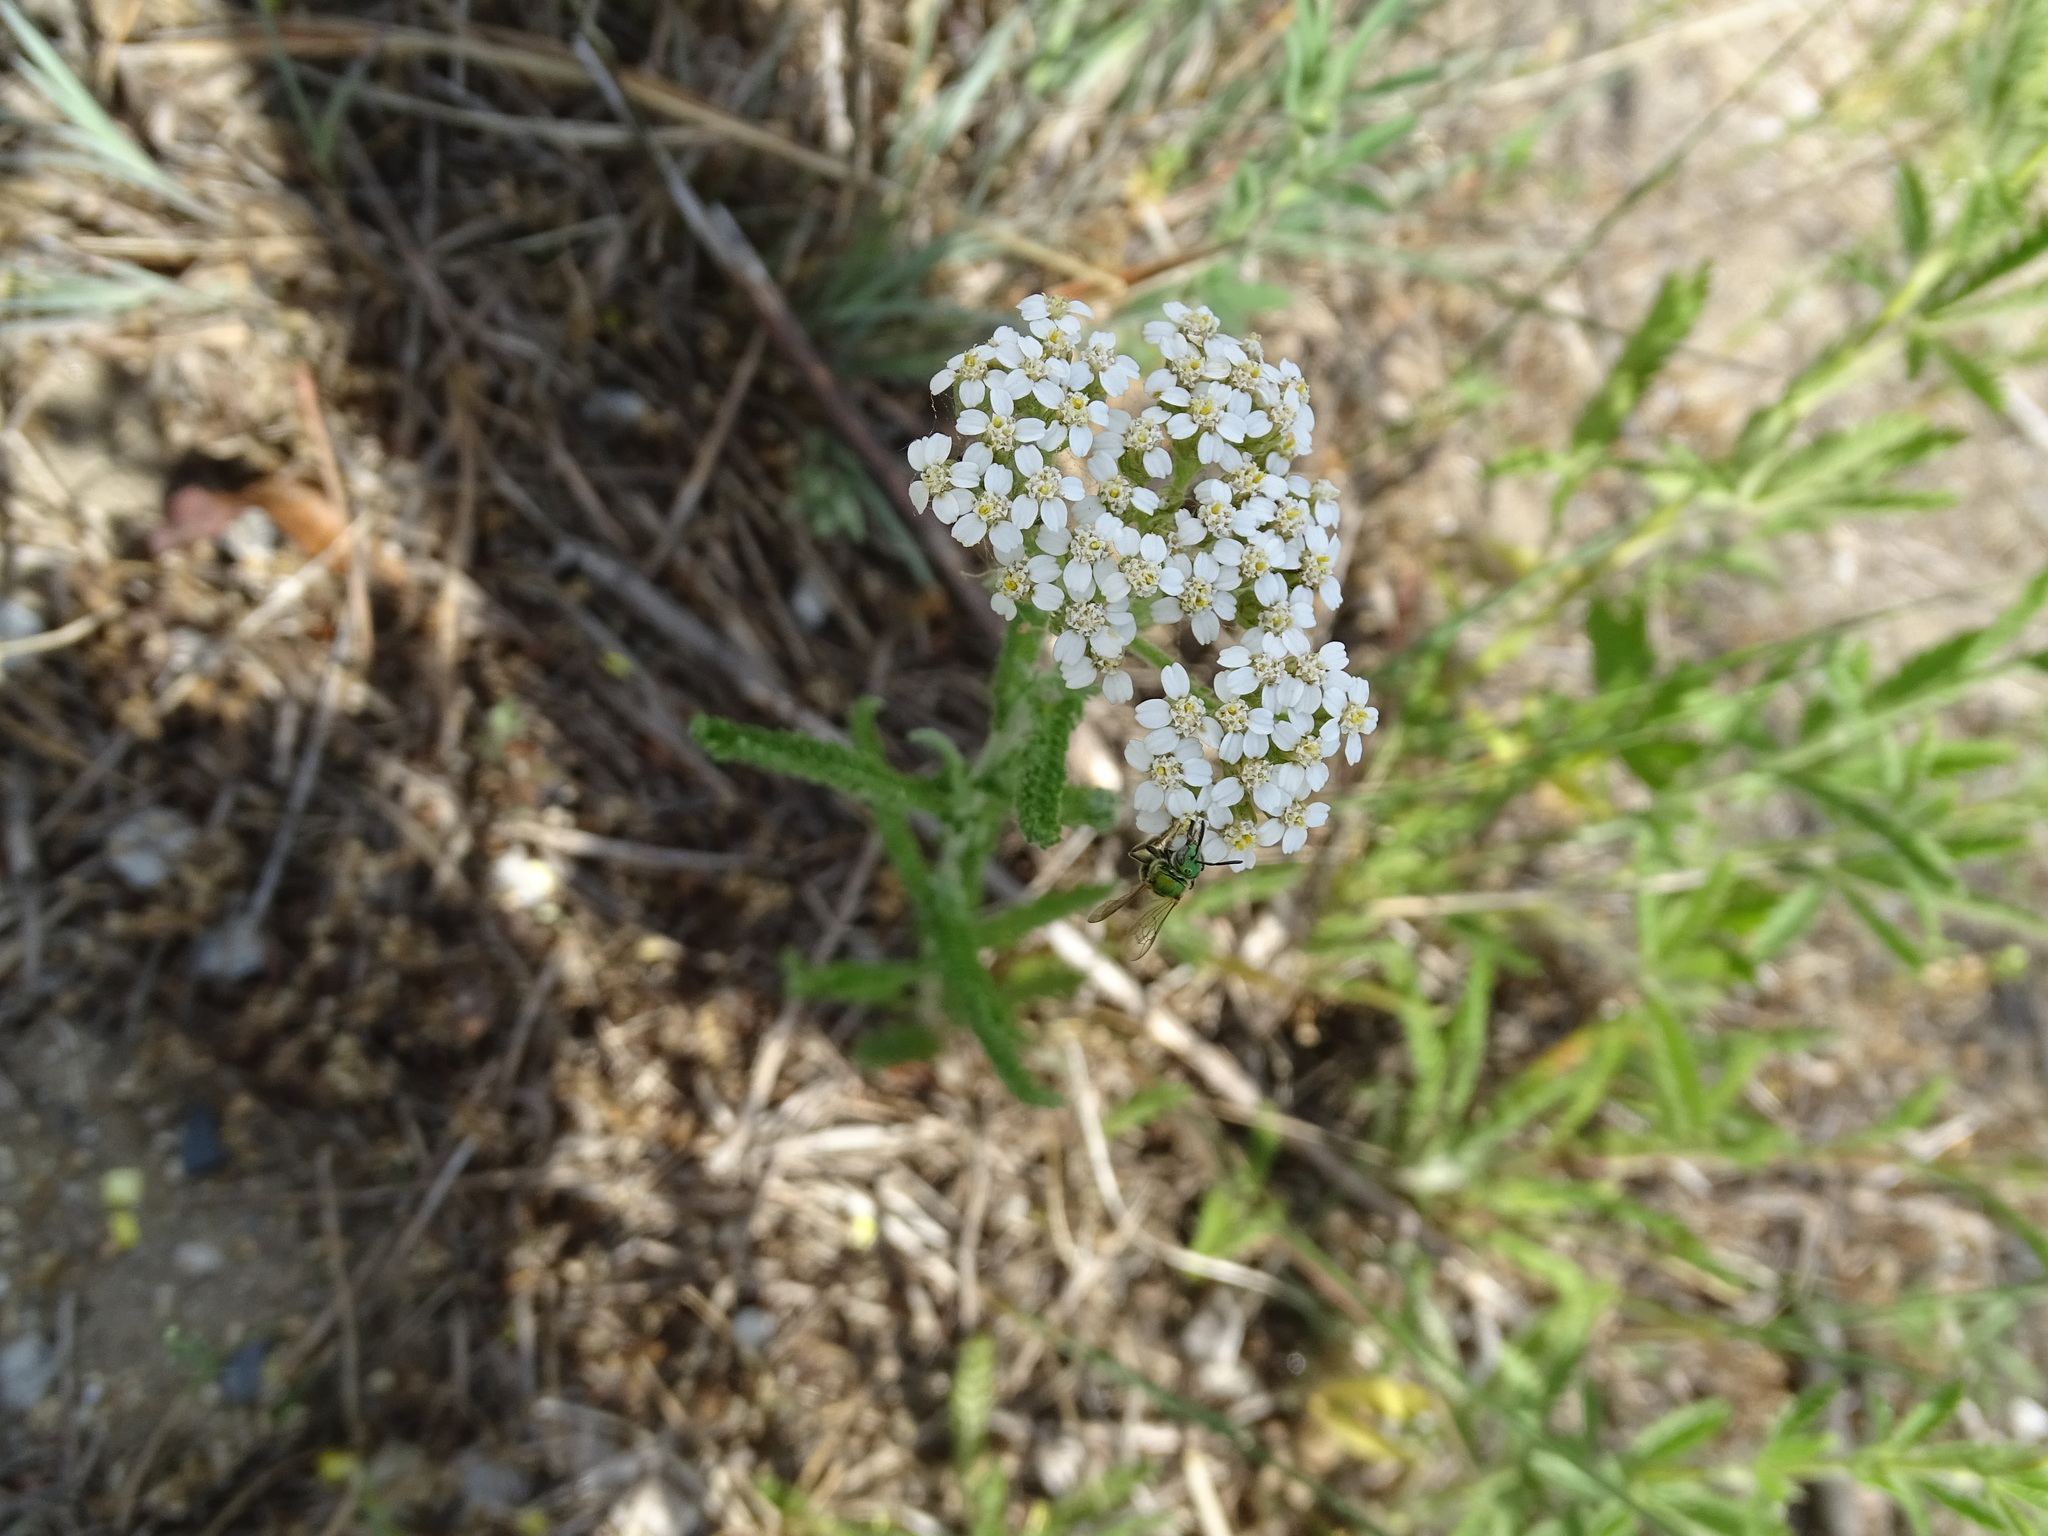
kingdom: Plantae
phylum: Tracheophyta
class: Magnoliopsida
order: Asterales
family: Asteraceae
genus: Achillea
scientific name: Achillea millefolium
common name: Yarrow
